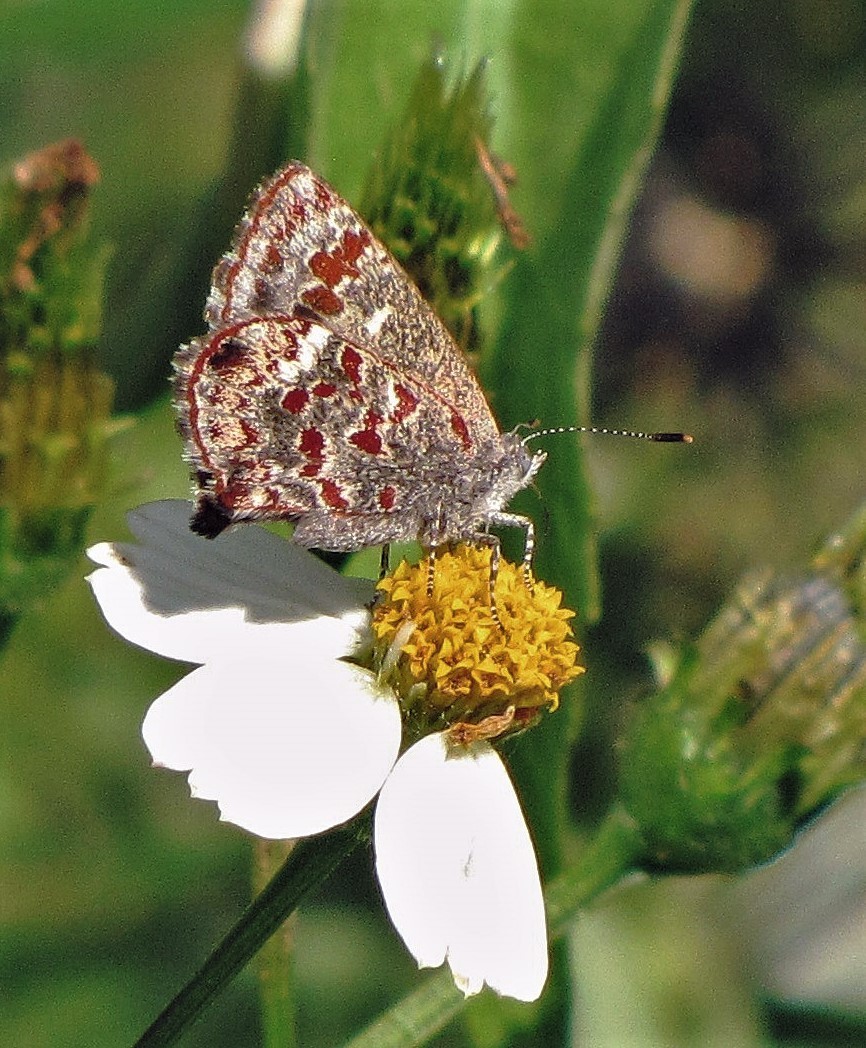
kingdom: Animalia
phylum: Arthropoda
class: Insecta
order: Lepidoptera
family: Lycaenidae
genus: Ministrymon
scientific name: Ministrymon
